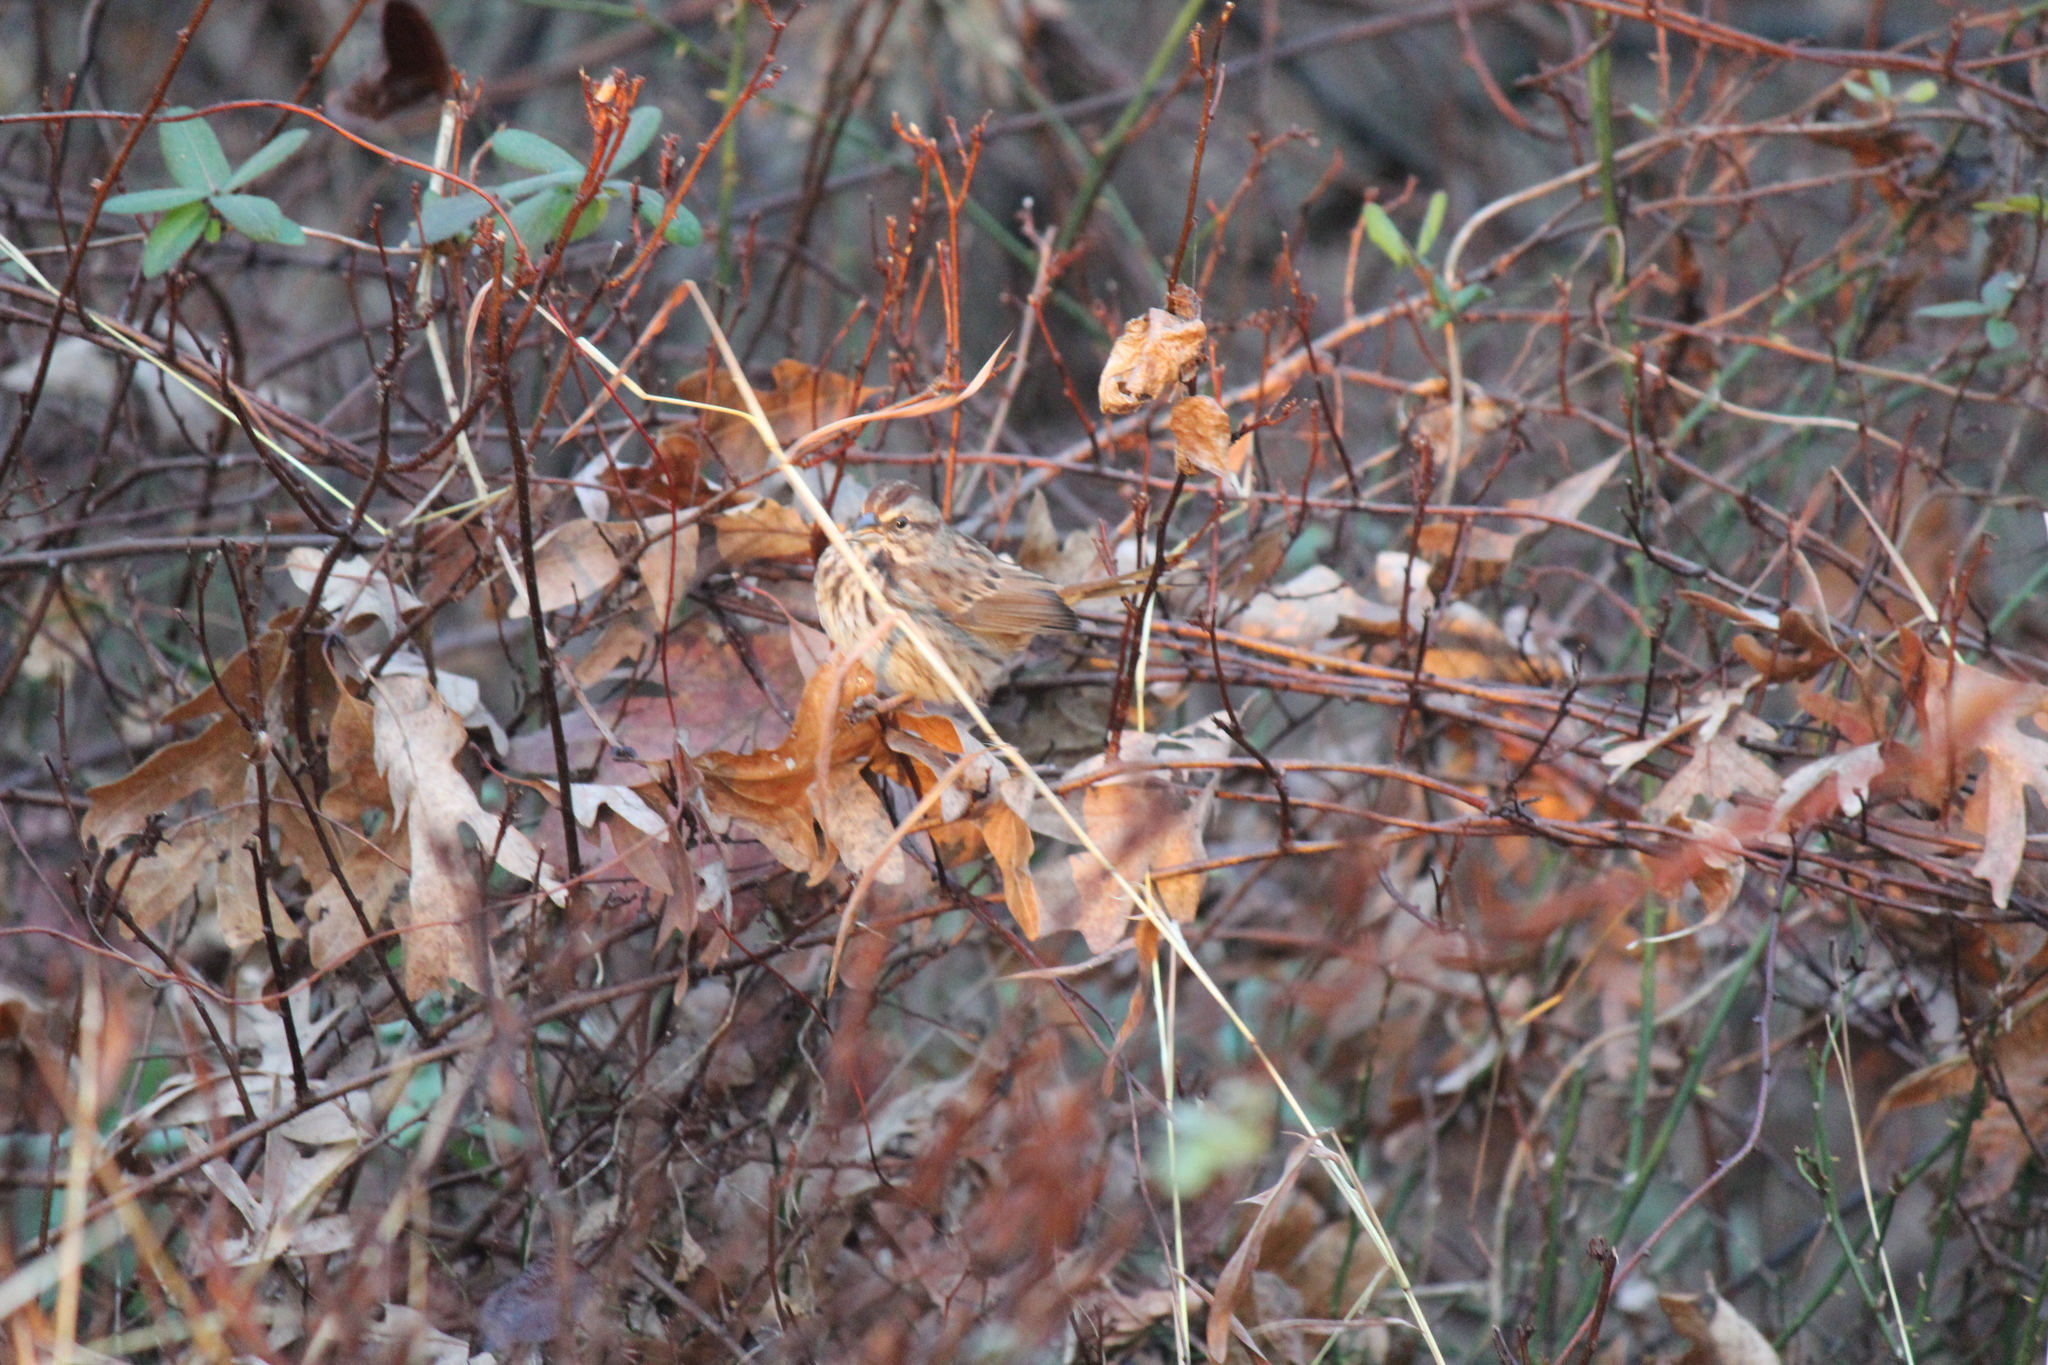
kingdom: Animalia
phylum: Chordata
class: Aves
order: Passeriformes
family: Passerellidae
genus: Melospiza
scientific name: Melospiza melodia
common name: Song sparrow
